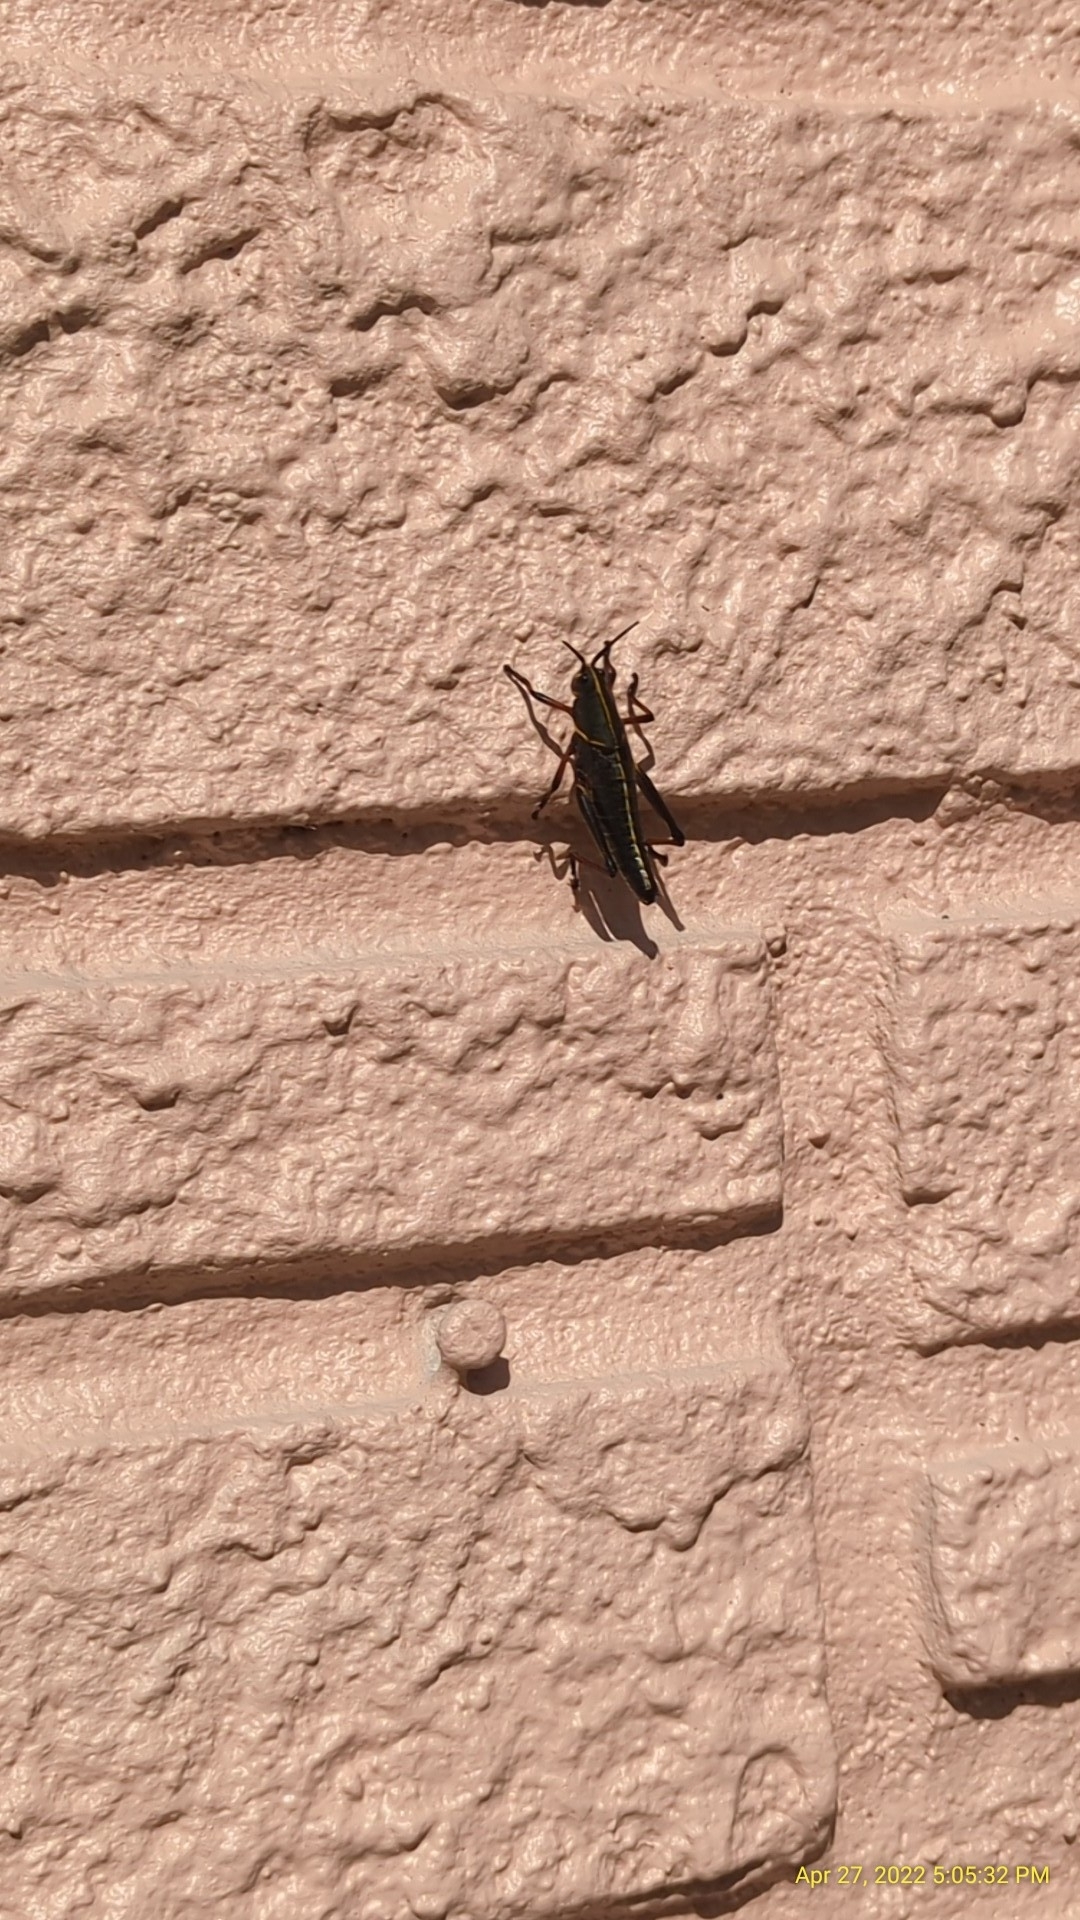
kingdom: Animalia
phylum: Arthropoda
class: Insecta
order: Orthoptera
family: Romaleidae
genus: Romalea
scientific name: Romalea microptera
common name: Eastern lubber grasshopper
